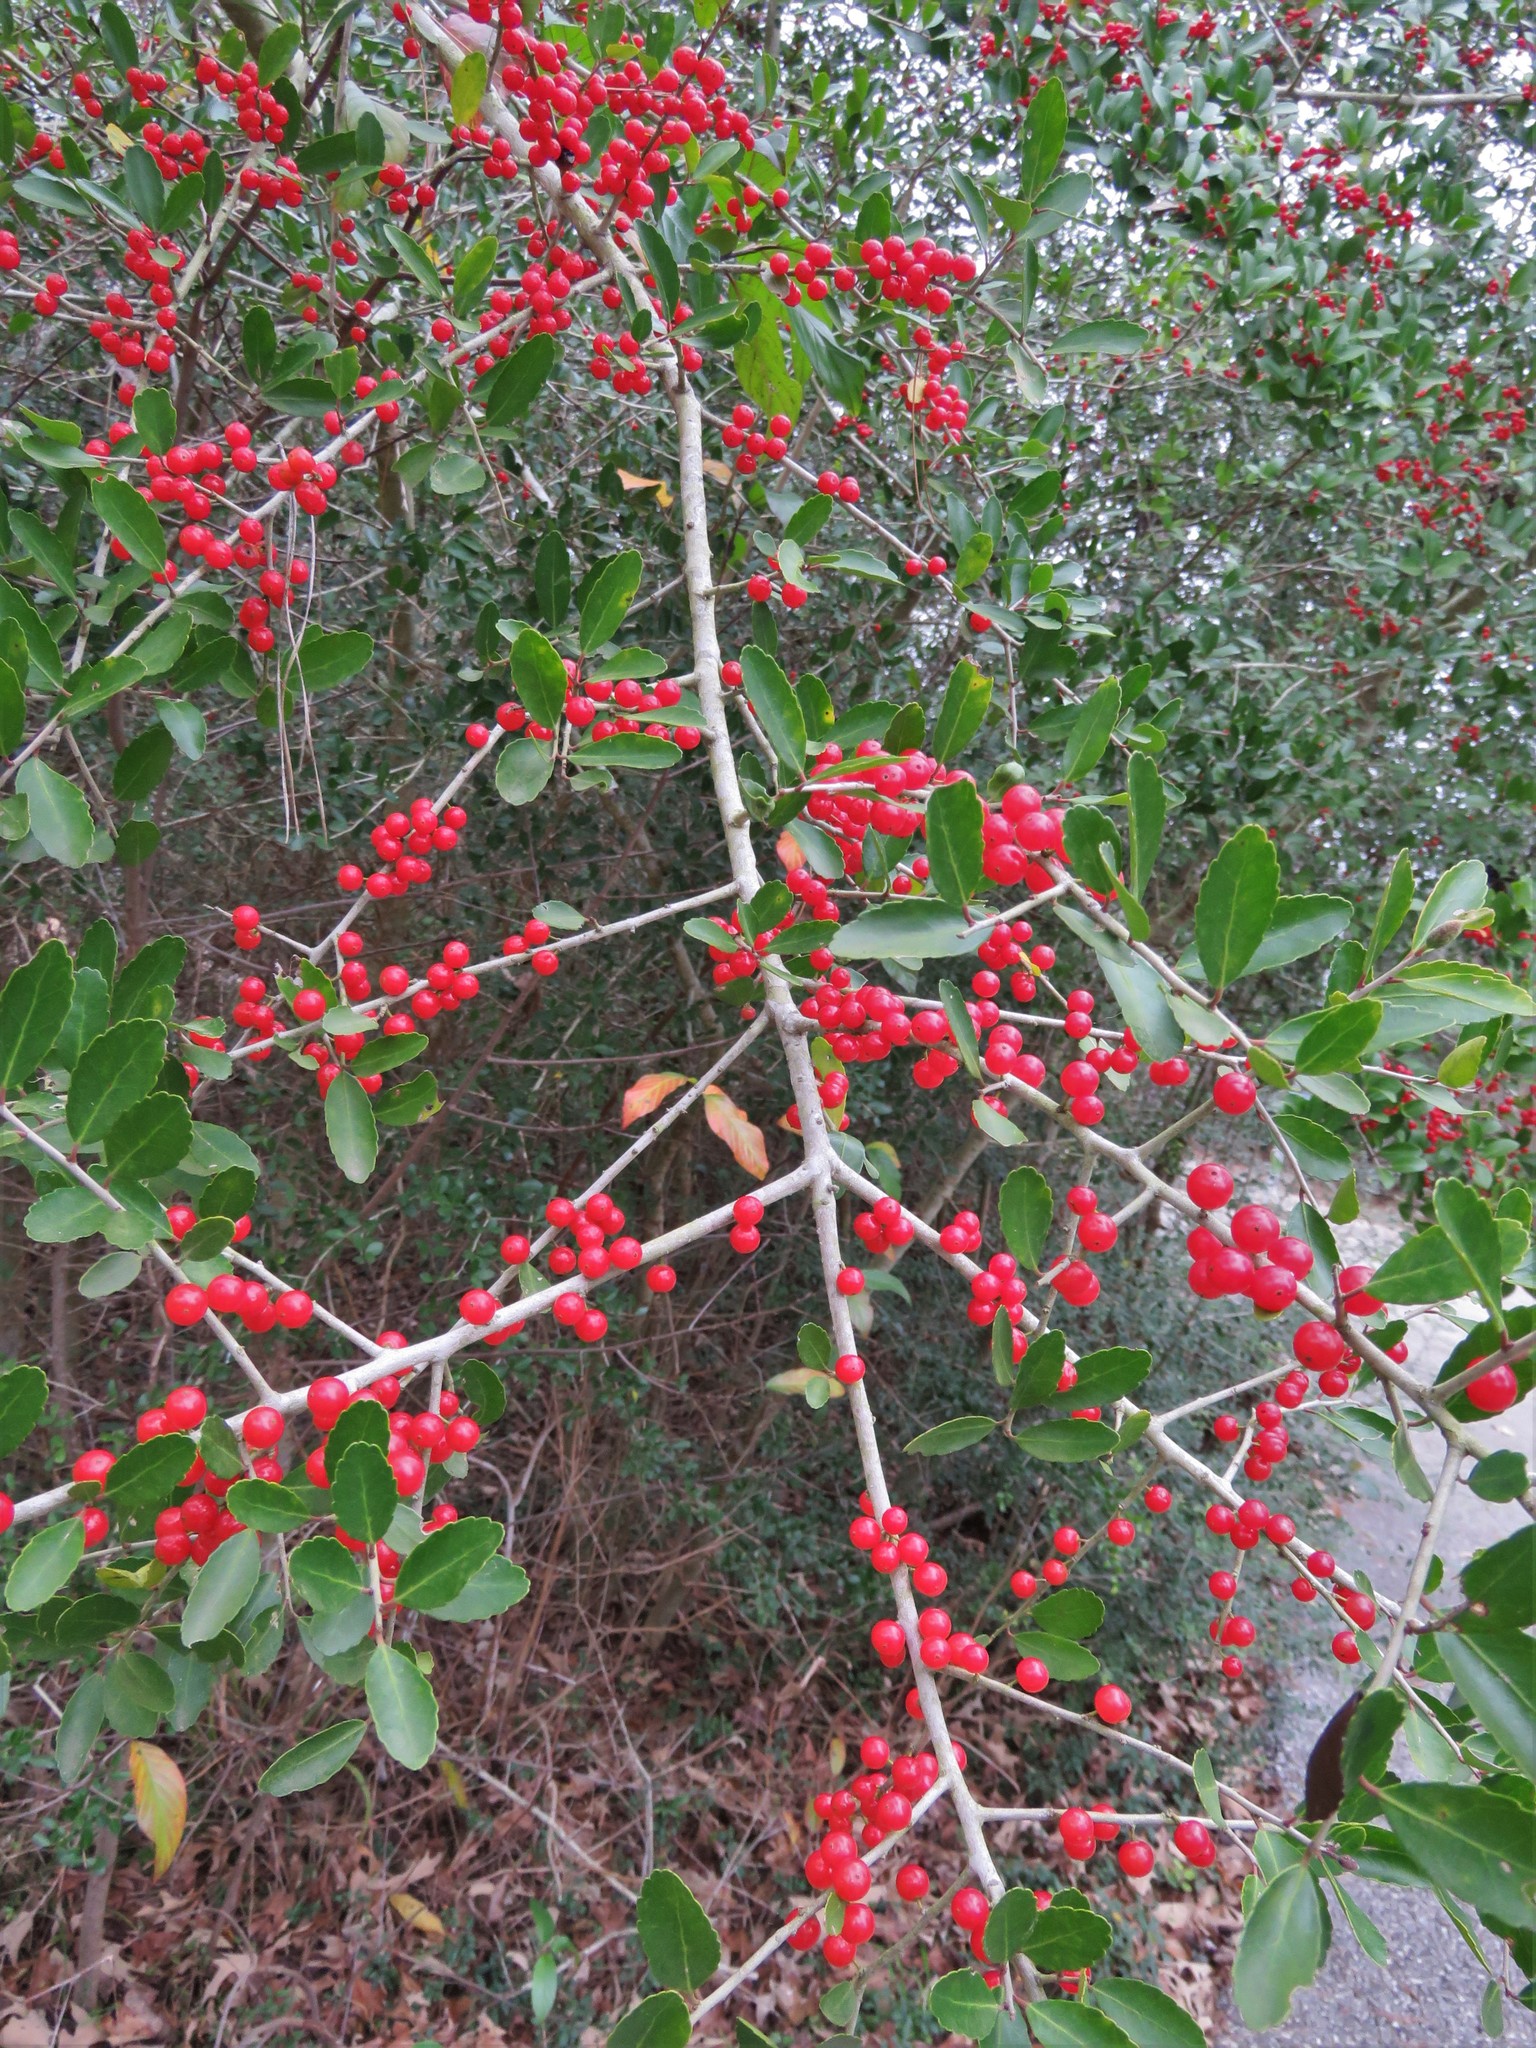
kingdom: Plantae
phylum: Tracheophyta
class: Magnoliopsida
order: Aquifoliales
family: Aquifoliaceae
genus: Ilex
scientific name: Ilex vomitoria
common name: Yaupon holly
